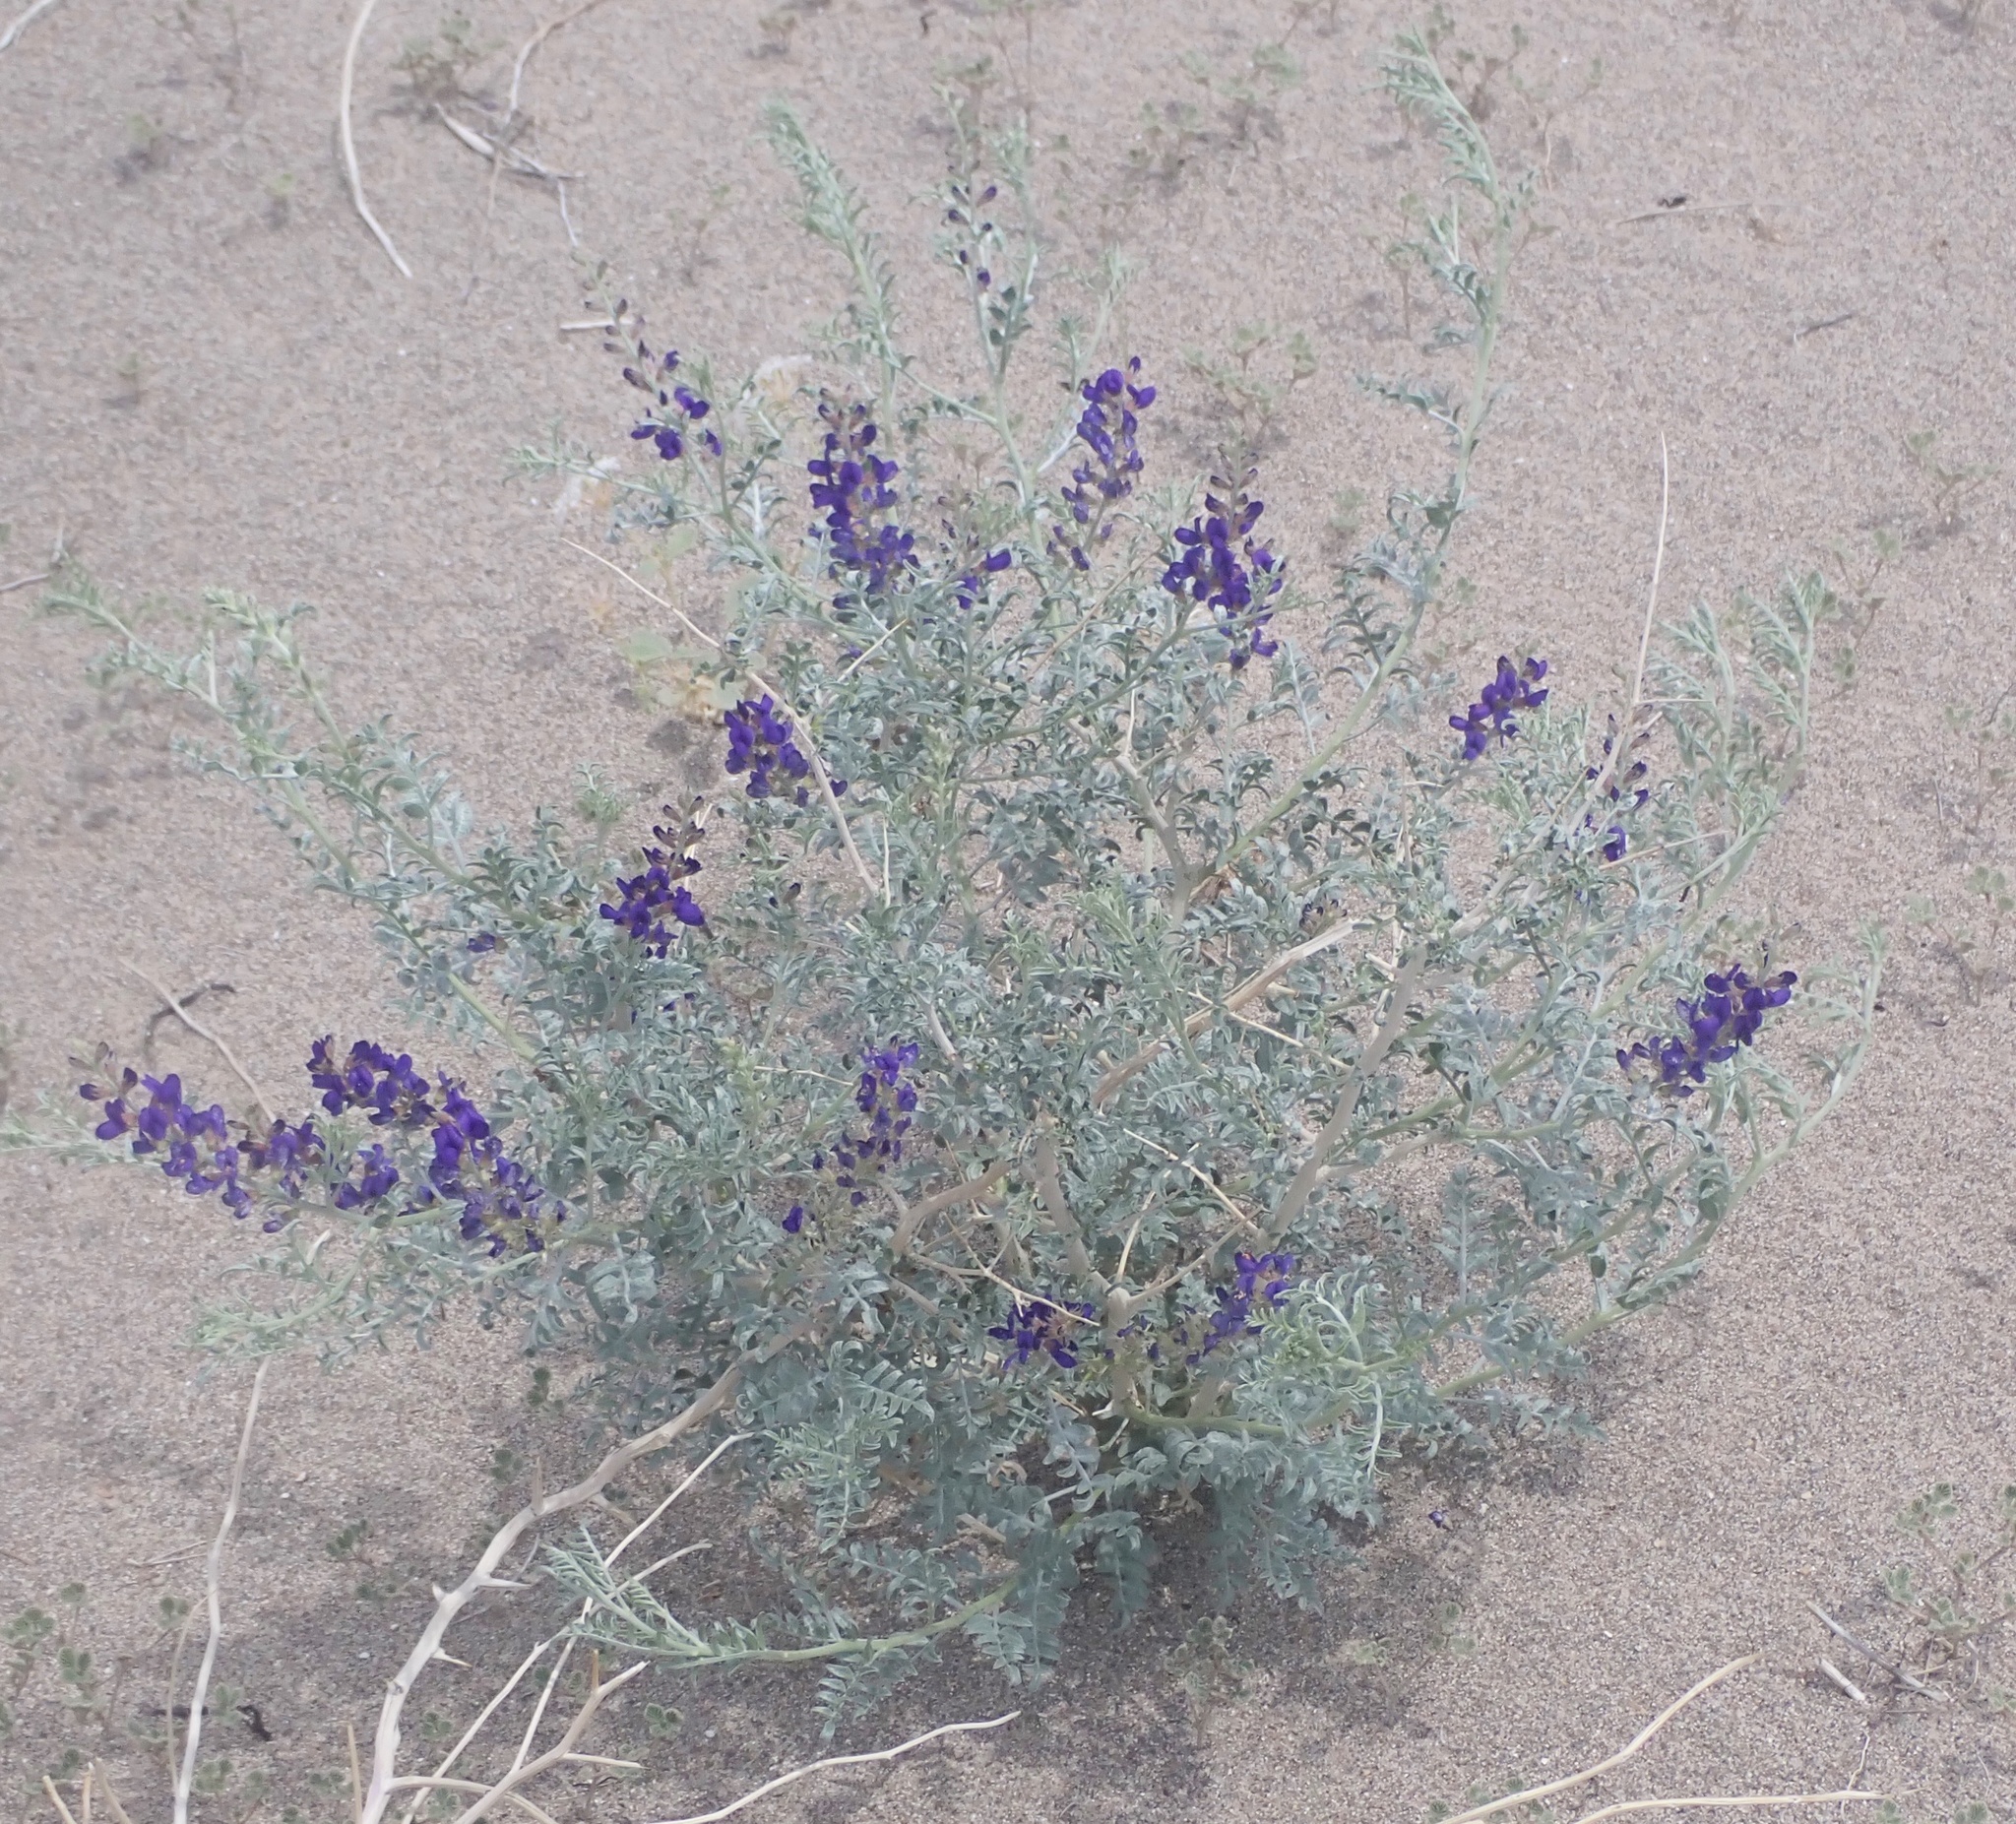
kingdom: Plantae
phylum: Tracheophyta
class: Magnoliopsida
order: Fabales
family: Fabaceae
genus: Psorothamnus
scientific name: Psorothamnus arborescens
